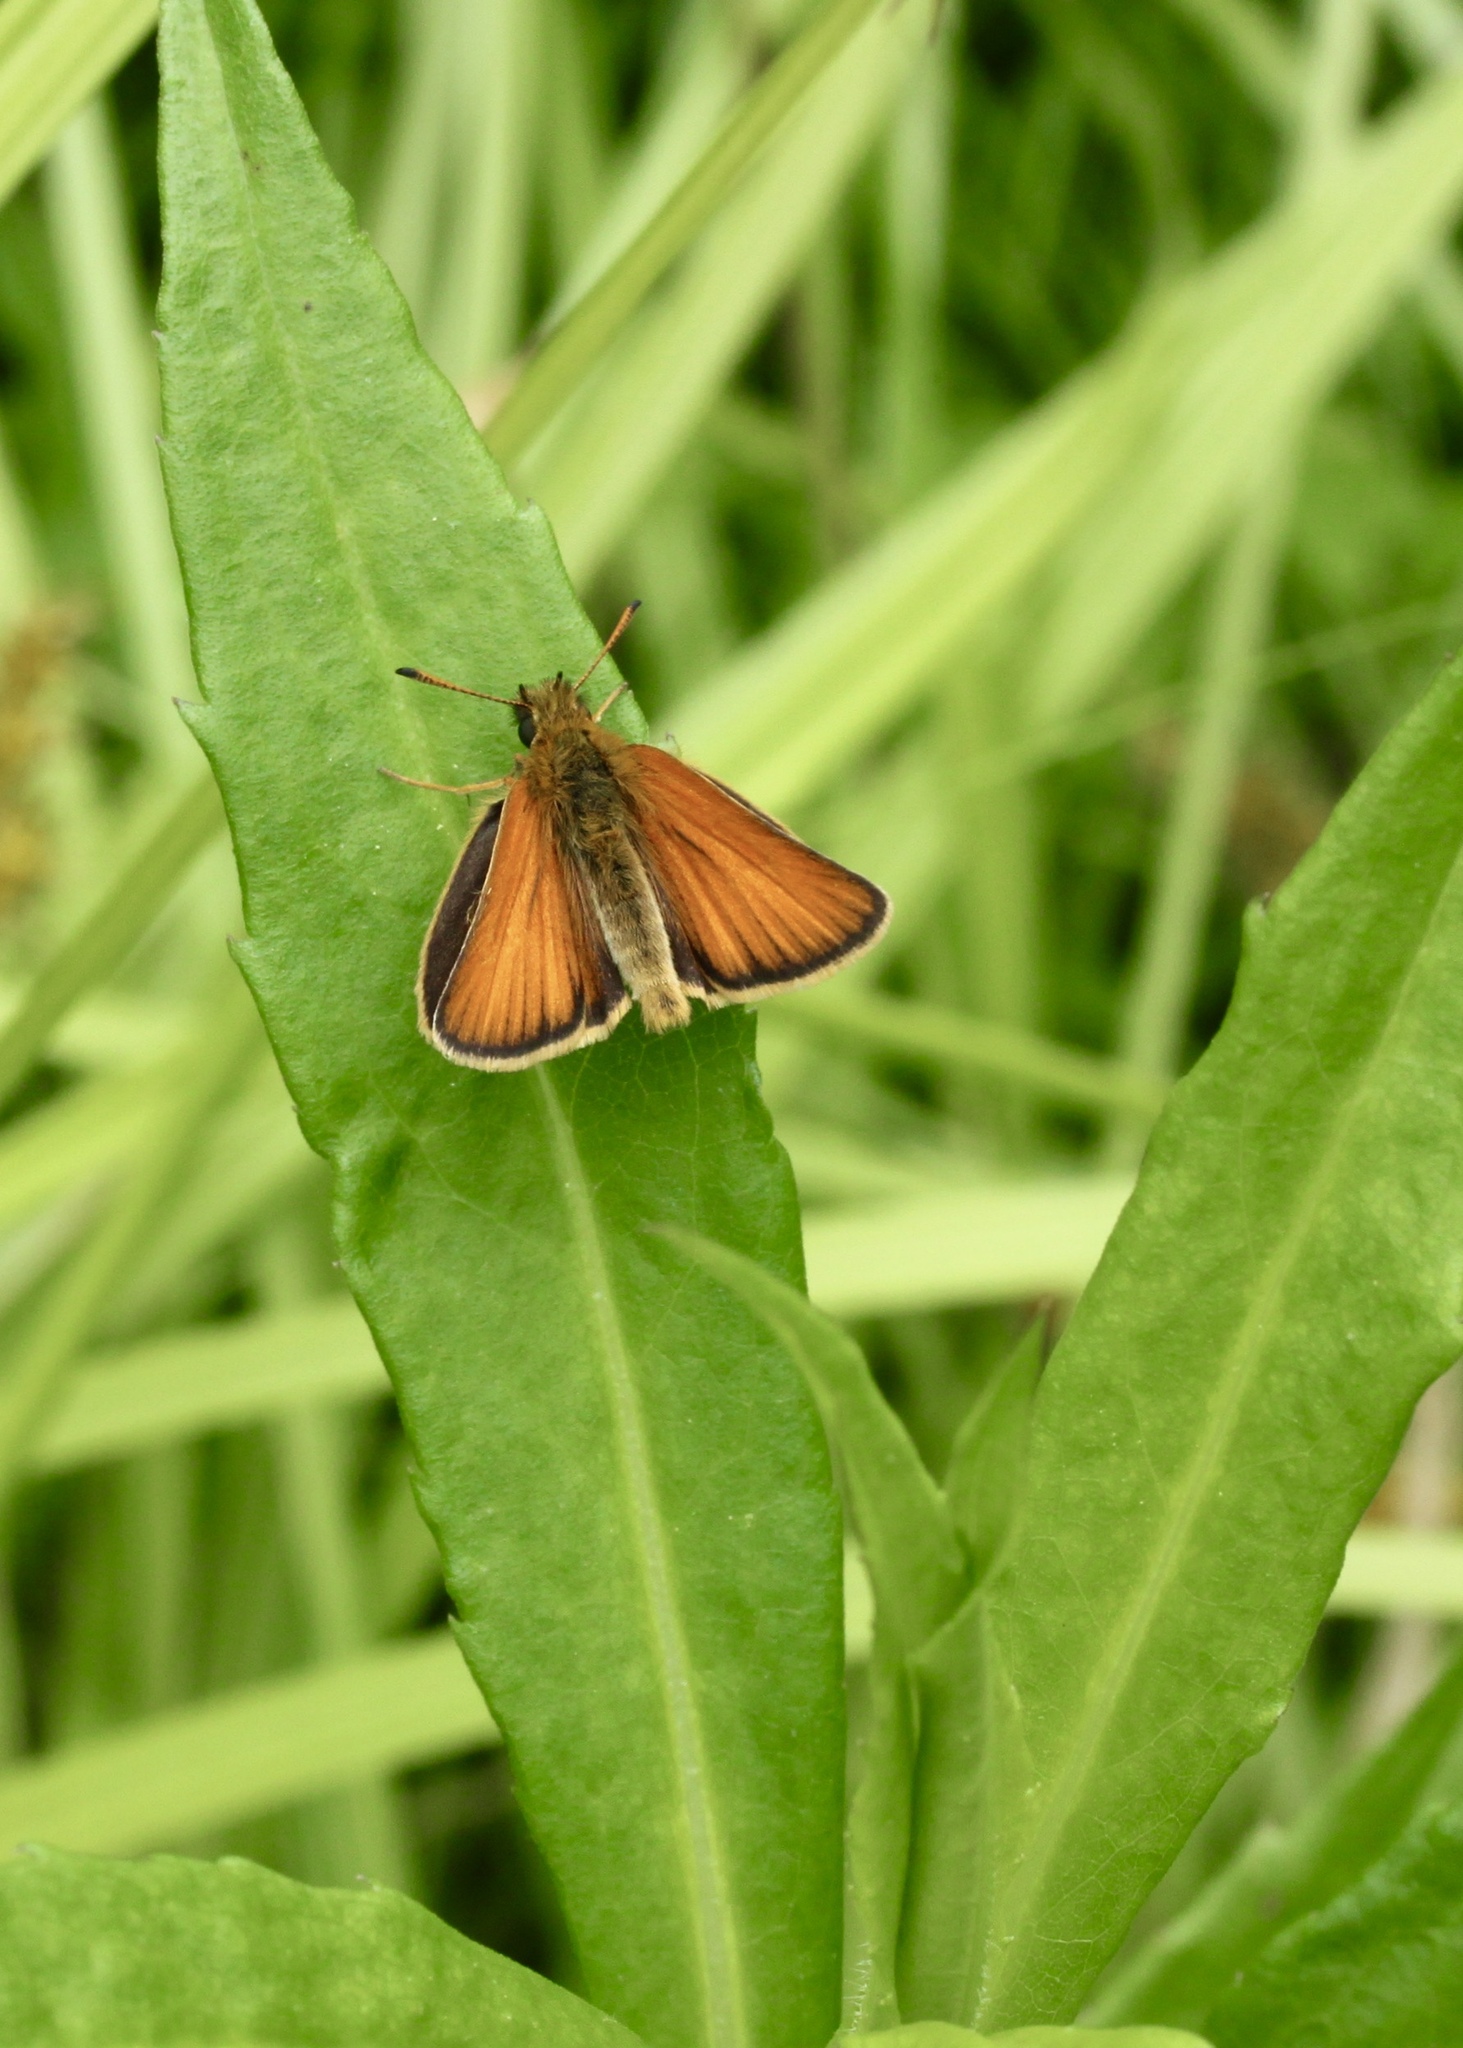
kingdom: Animalia
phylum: Arthropoda
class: Insecta
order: Lepidoptera
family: Hesperiidae
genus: Thymelicus
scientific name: Thymelicus lineola
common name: Essex skipper
